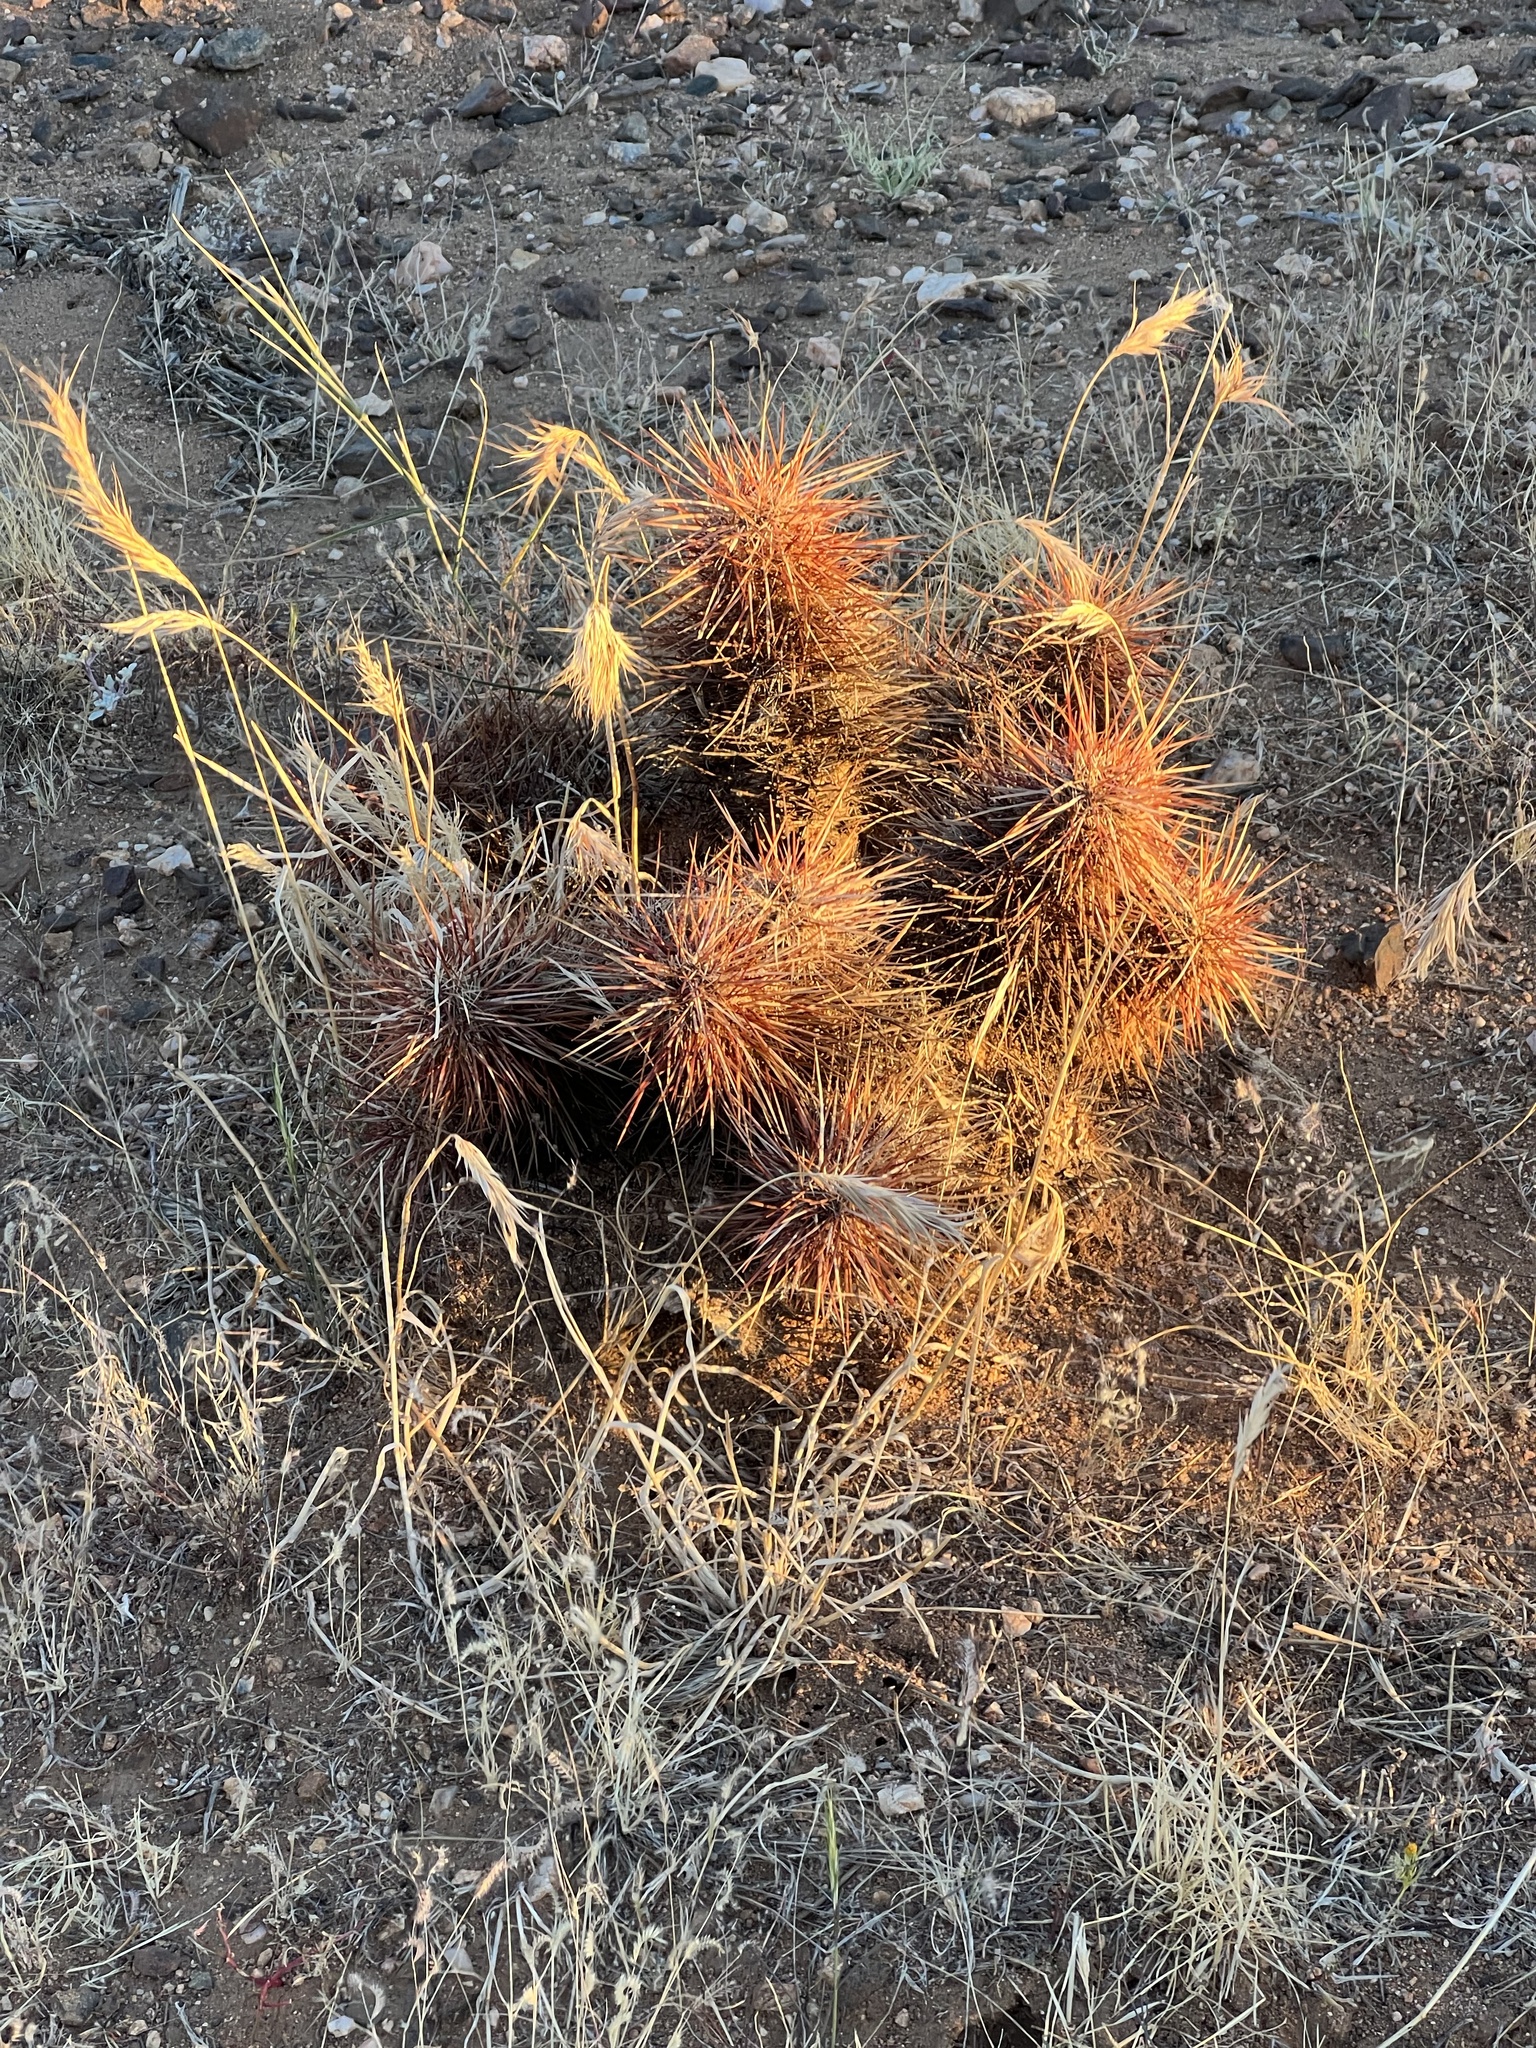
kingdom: Plantae
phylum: Tracheophyta
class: Magnoliopsida
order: Caryophyllales
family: Cactaceae
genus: Echinocereus
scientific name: Echinocereus engelmannii
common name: Engelmann's hedgehog cactus
